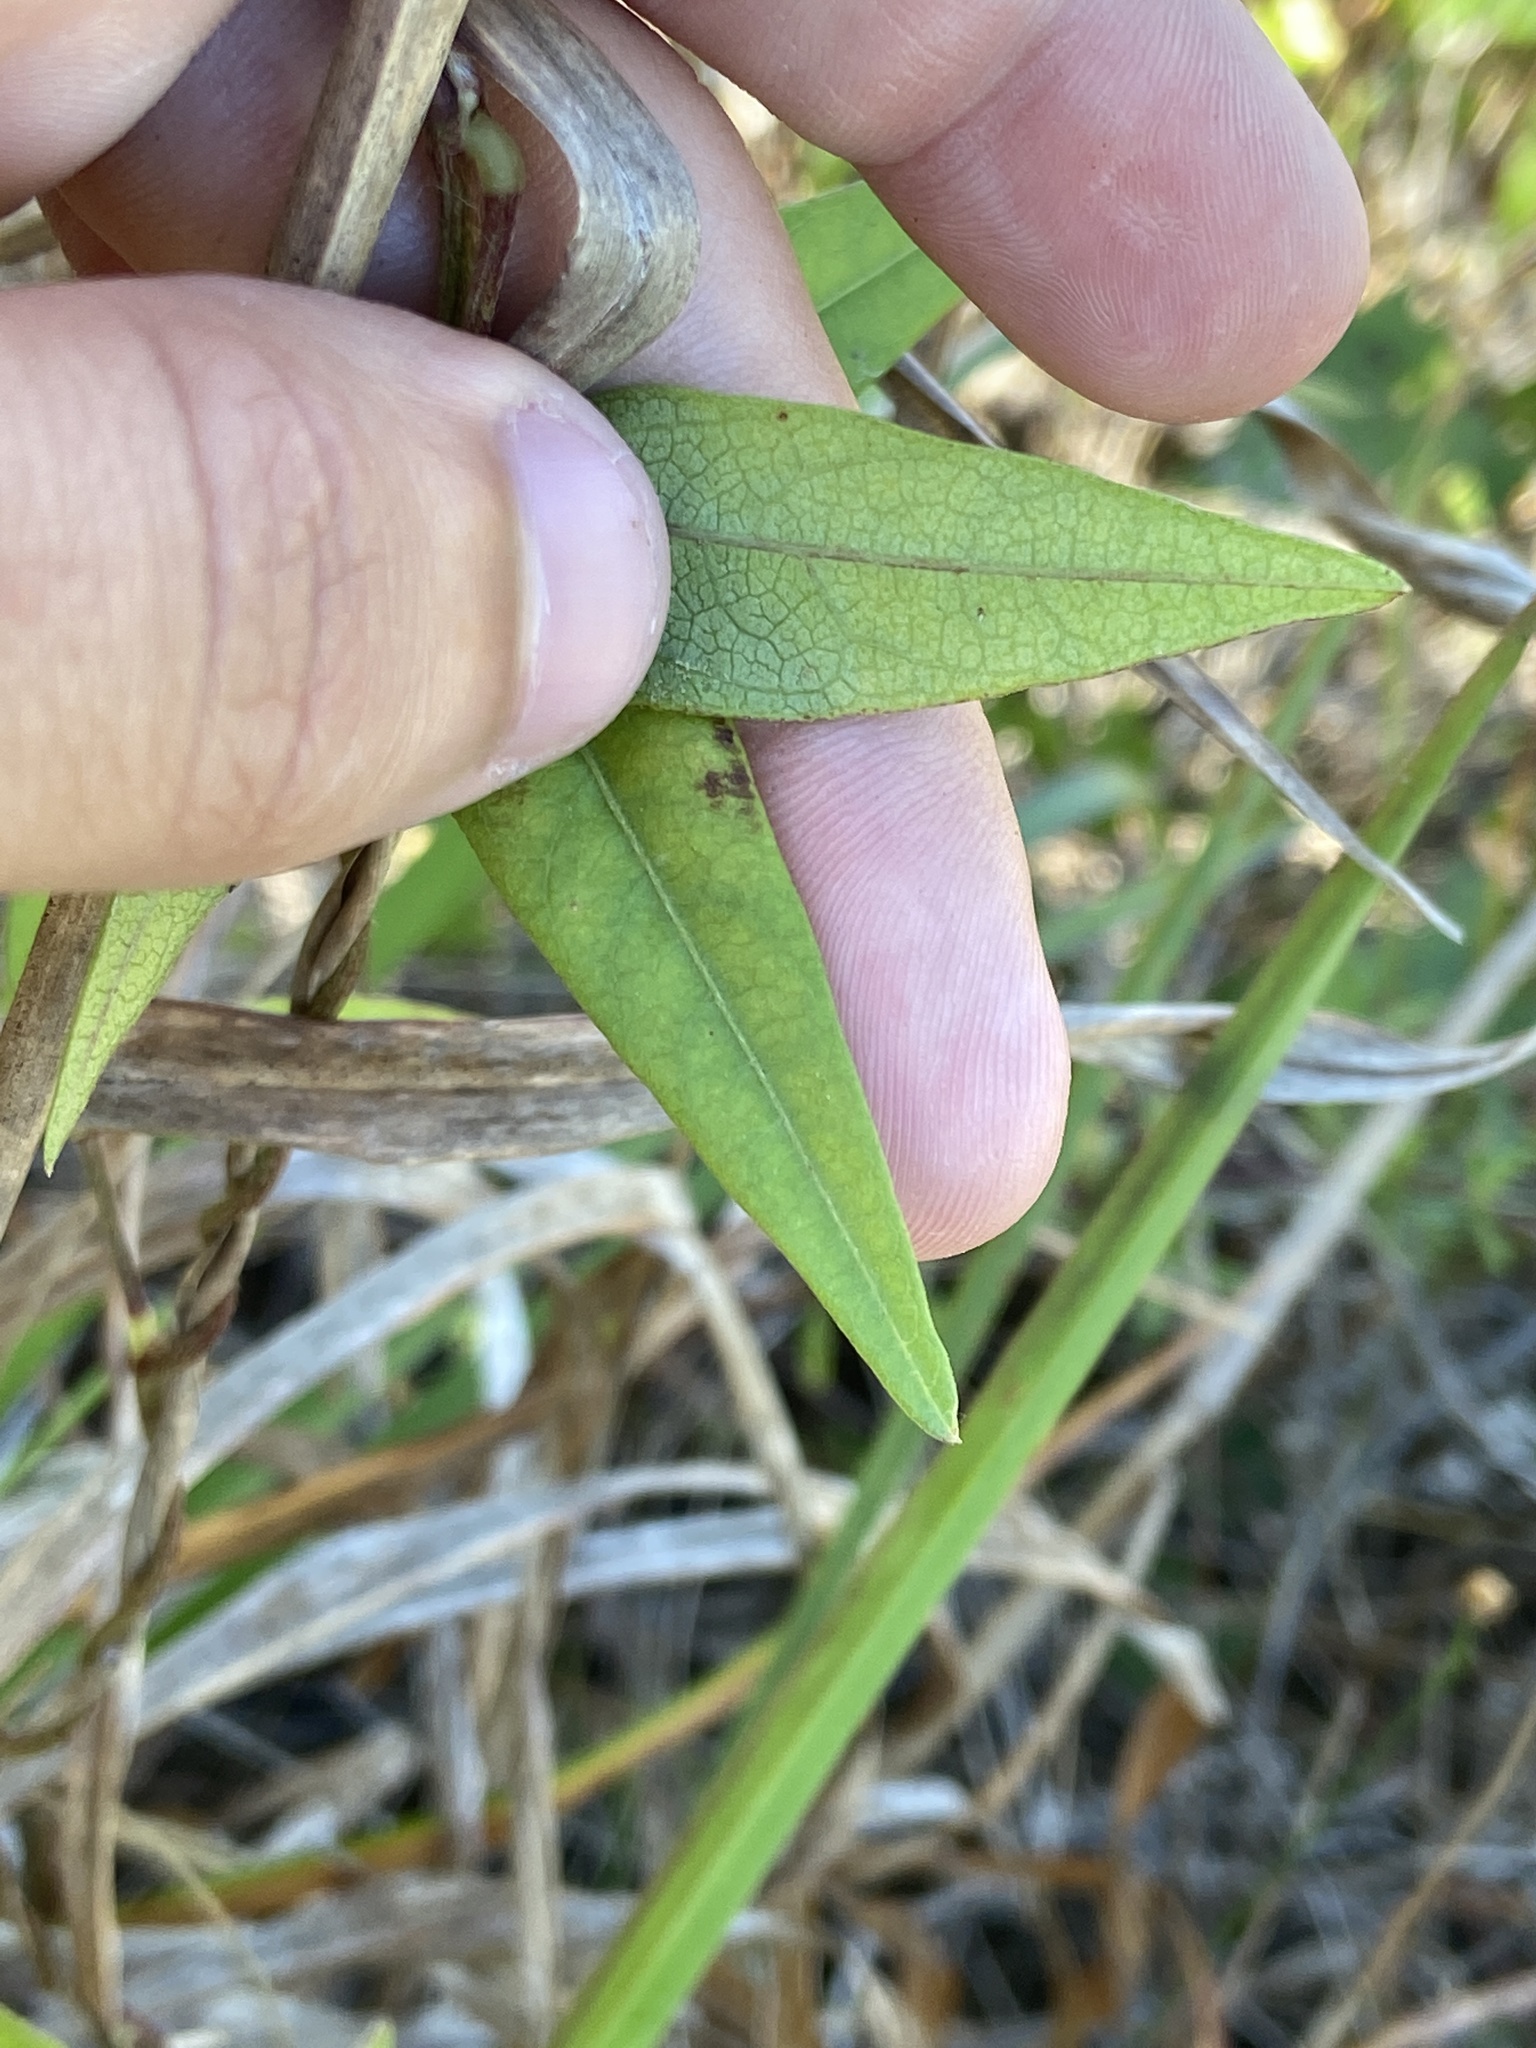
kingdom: Plantae
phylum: Tracheophyta
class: Magnoliopsida
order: Fabales
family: Fabaceae
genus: Vigna
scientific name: Vigna luteola
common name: Hairypod cowpea
